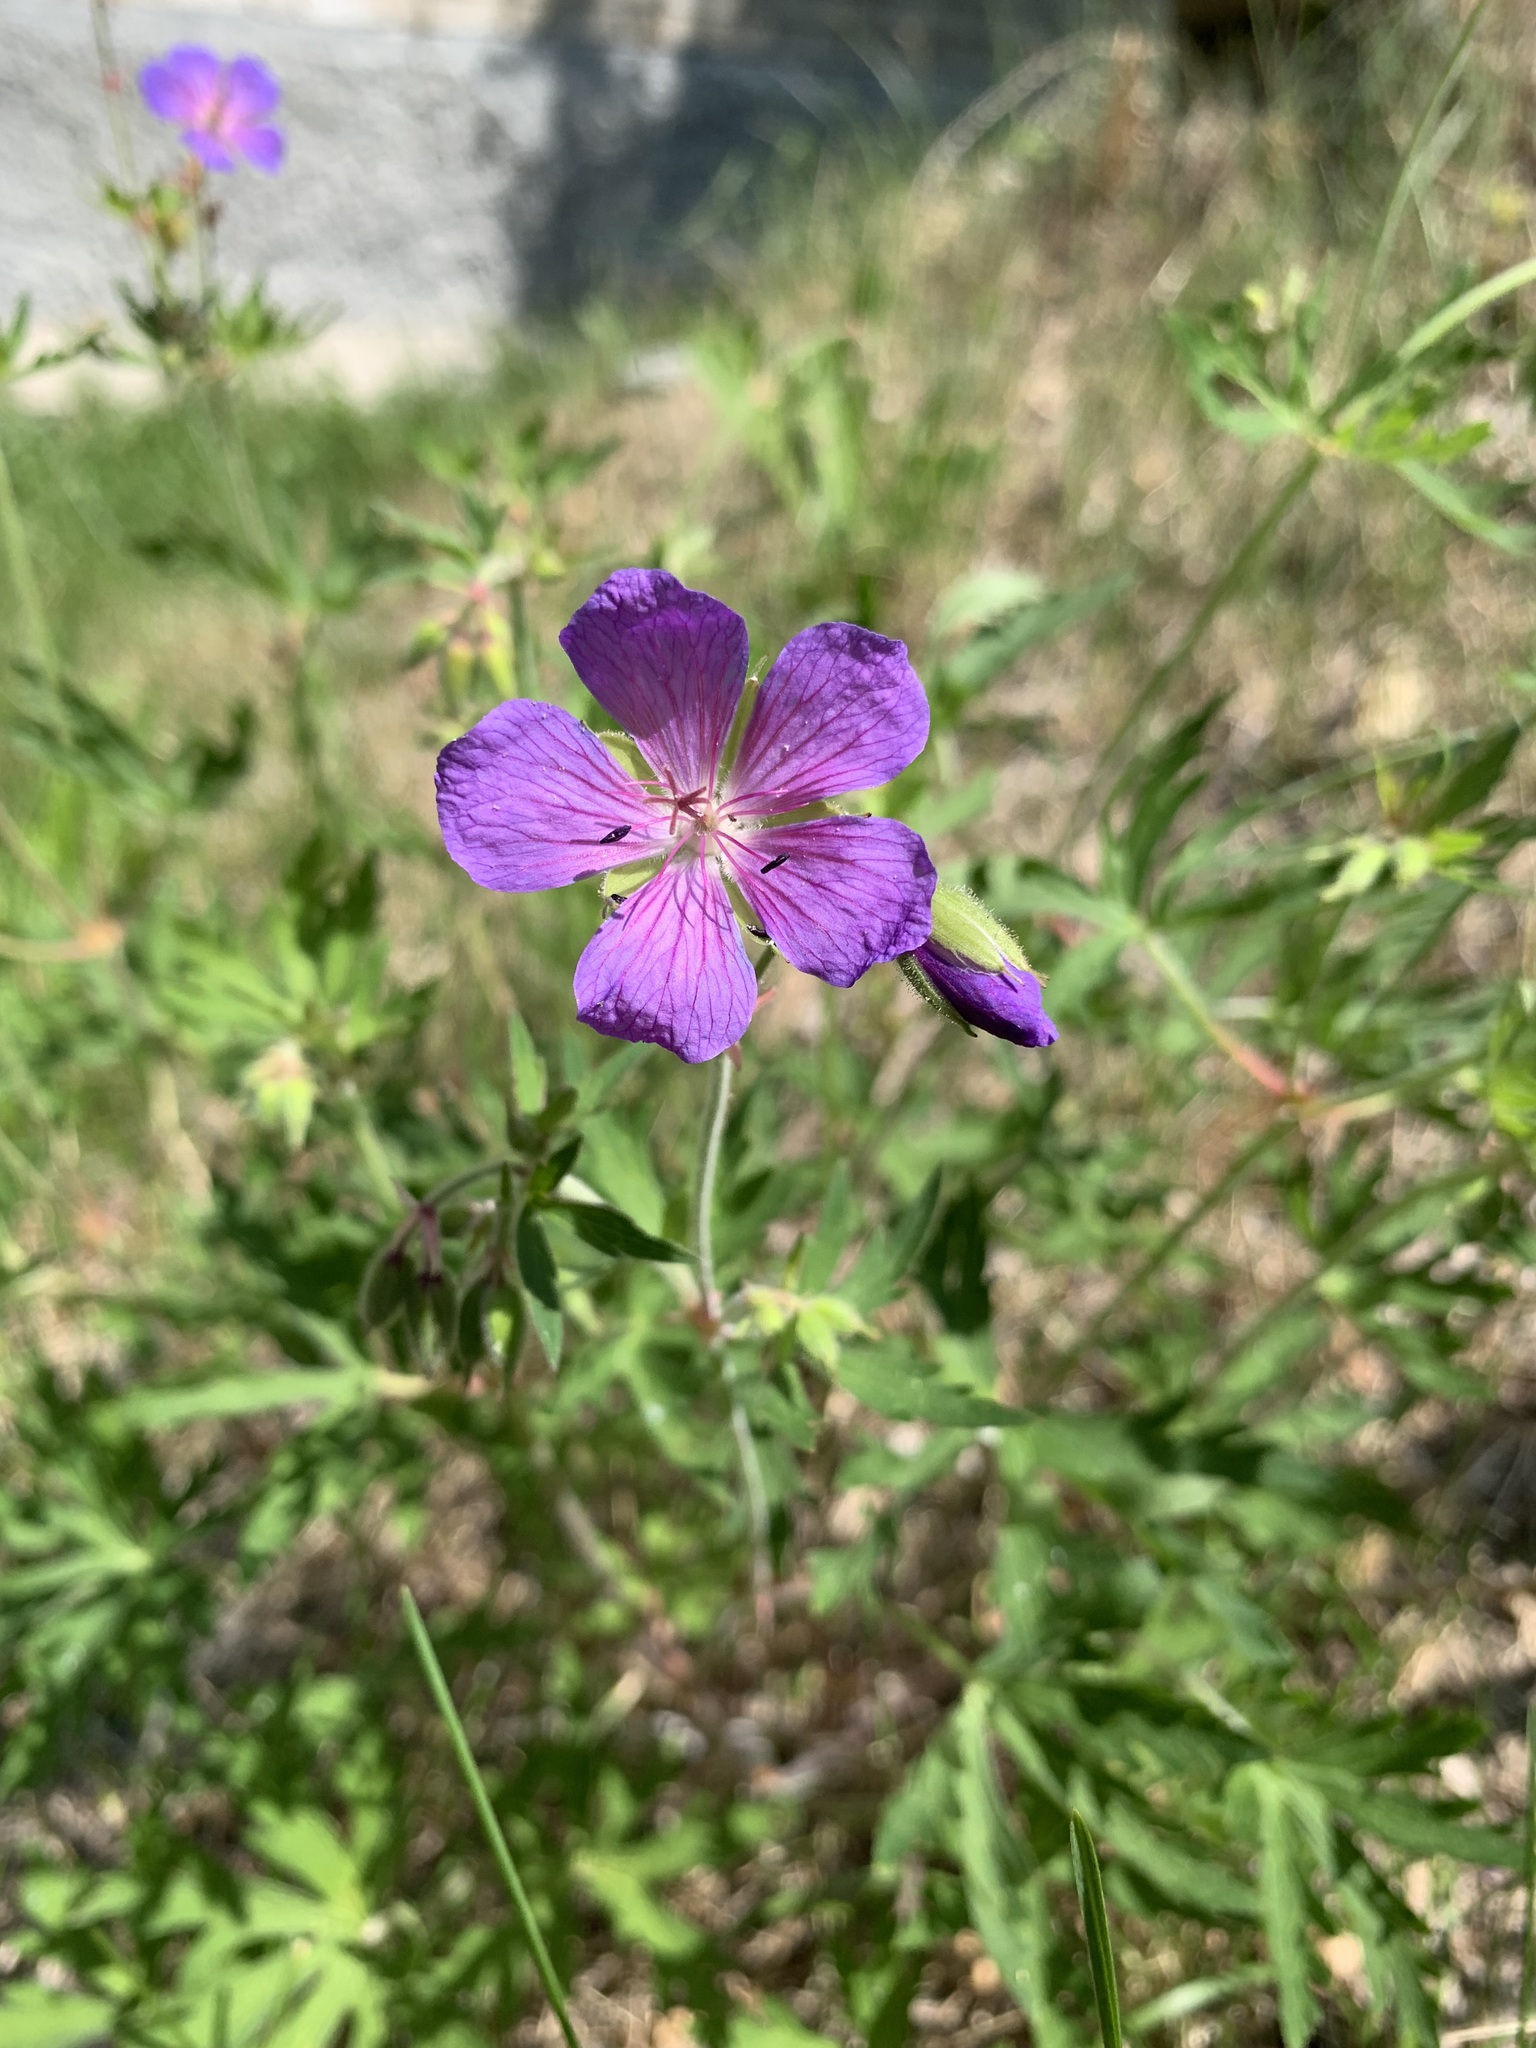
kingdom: Plantae
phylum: Tracheophyta
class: Magnoliopsida
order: Geraniales
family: Geraniaceae
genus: Geranium
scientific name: Geranium pratense
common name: Meadow crane's-bill
